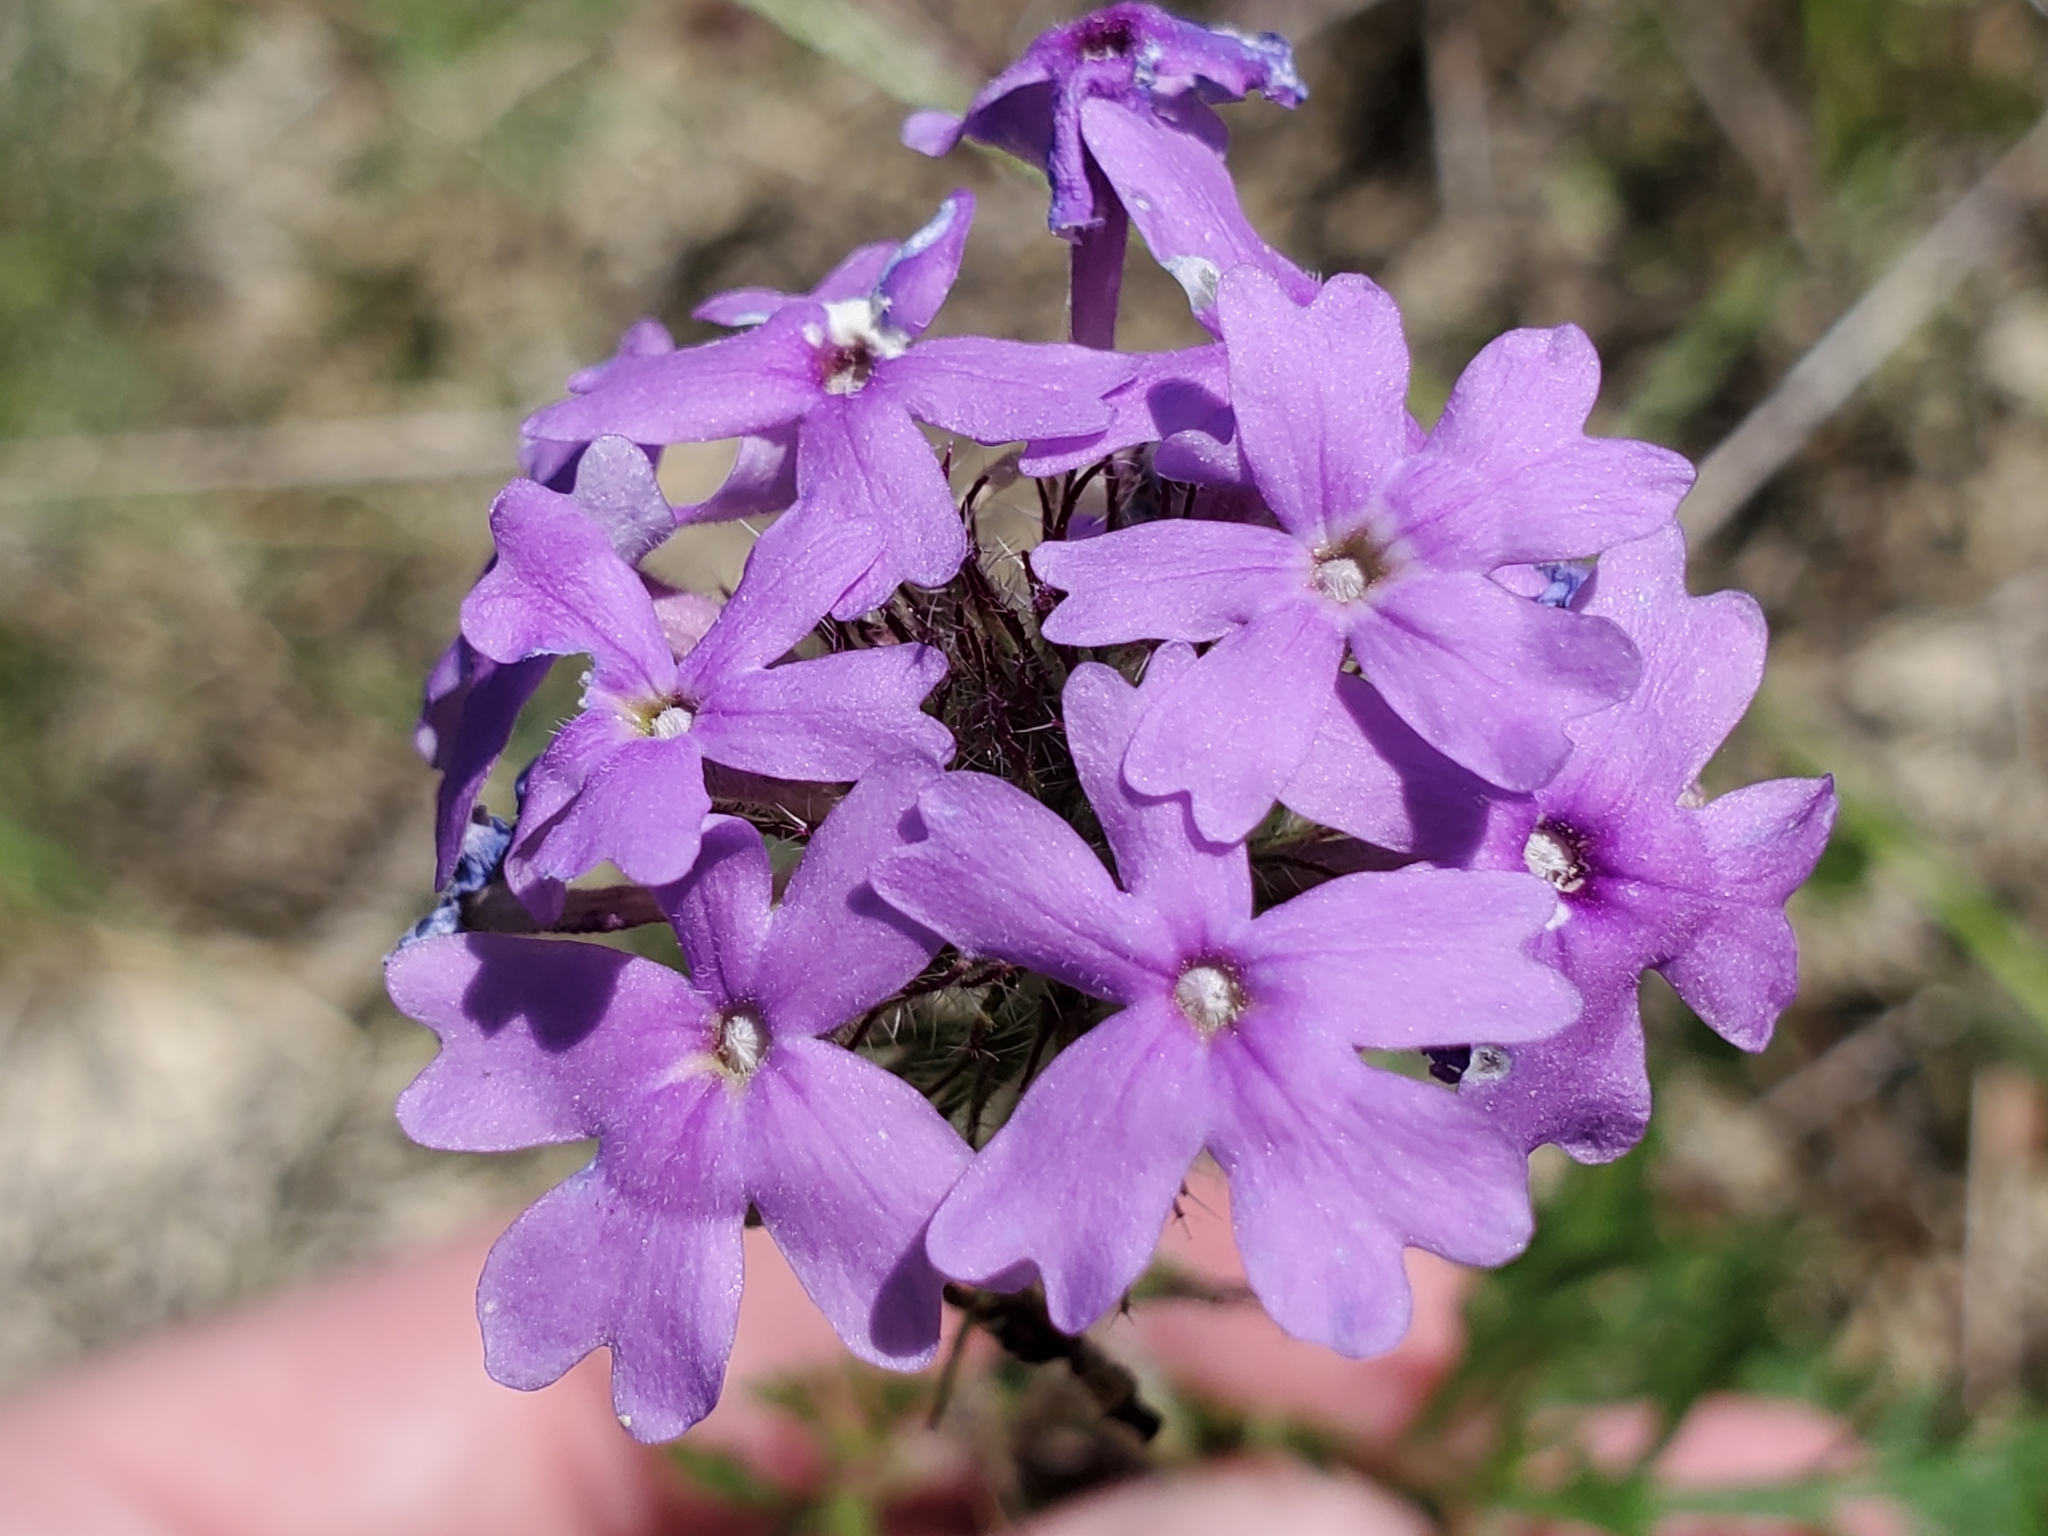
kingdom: Plantae
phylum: Tracheophyta
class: Magnoliopsida
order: Lamiales
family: Verbenaceae
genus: Verbena
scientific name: Verbena bipinnatifida
